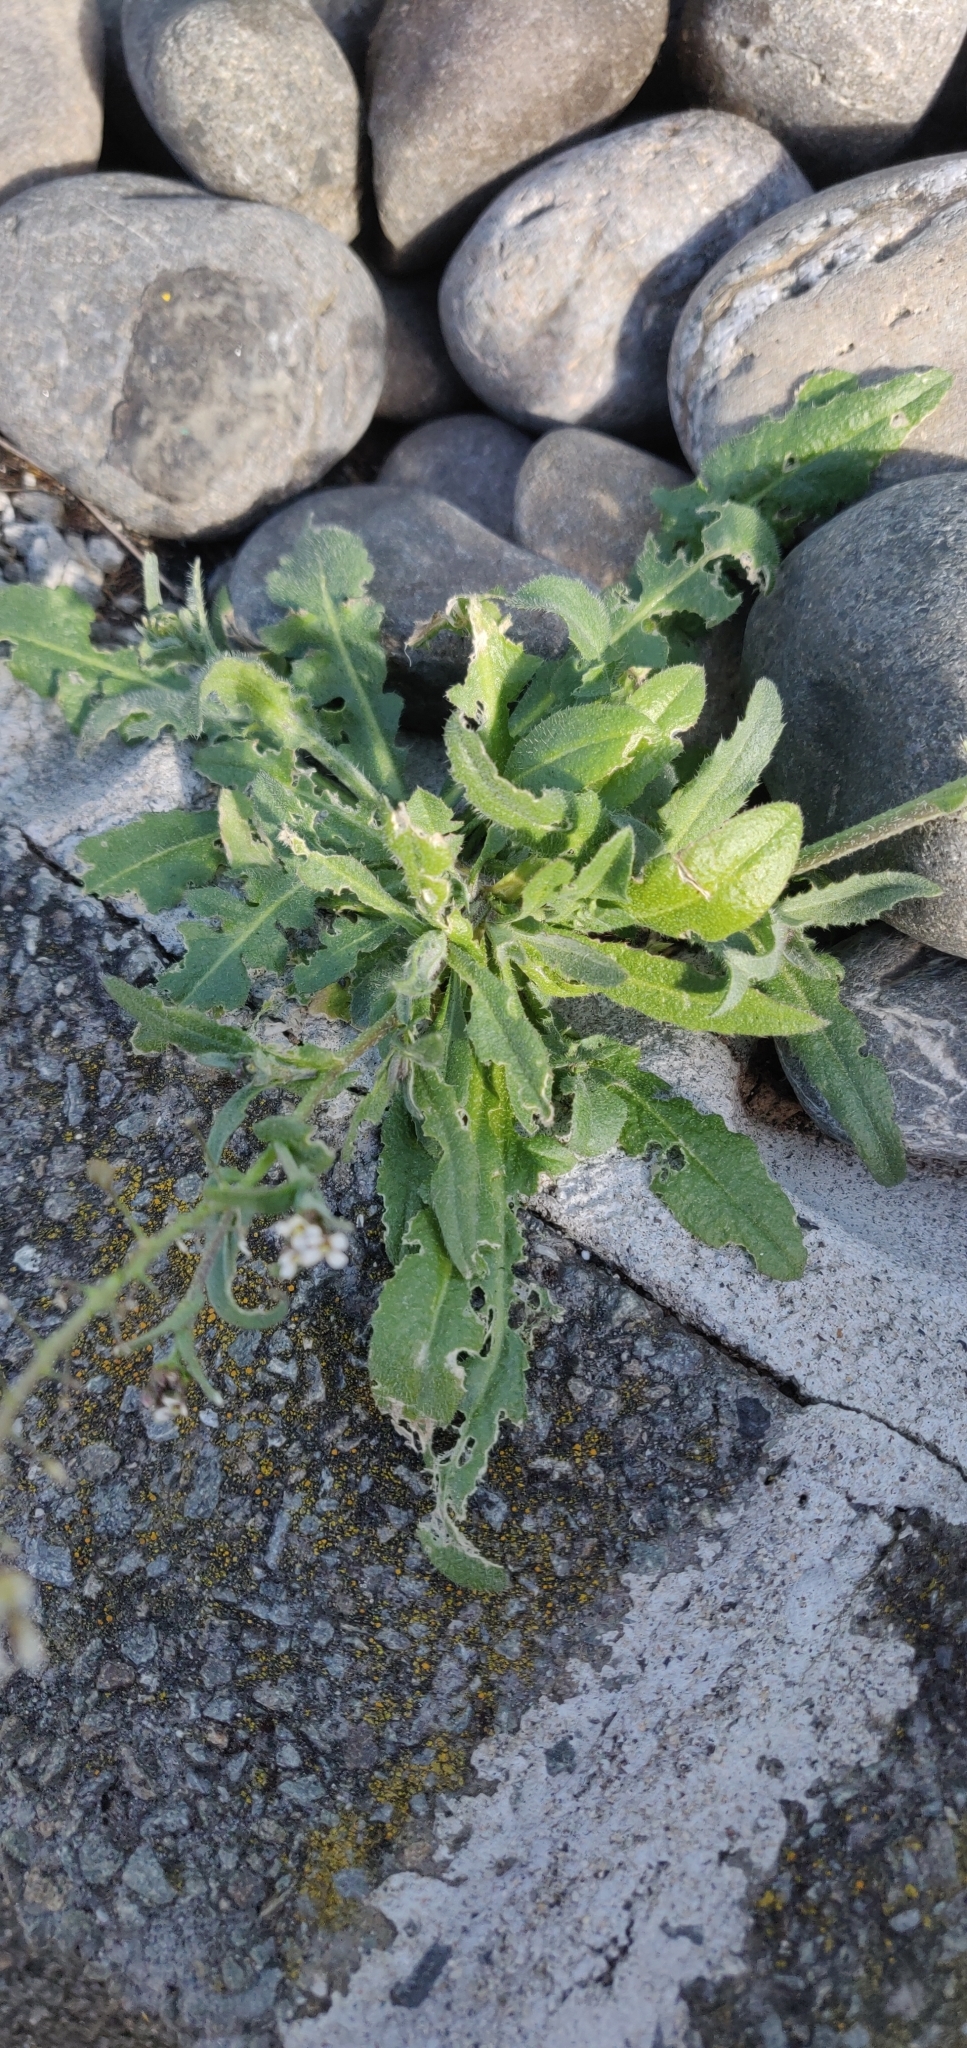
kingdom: Plantae
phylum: Tracheophyta
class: Magnoliopsida
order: Brassicales
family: Brassicaceae
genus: Capsella
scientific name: Capsella bursa-pastoris
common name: Shepherd's purse
